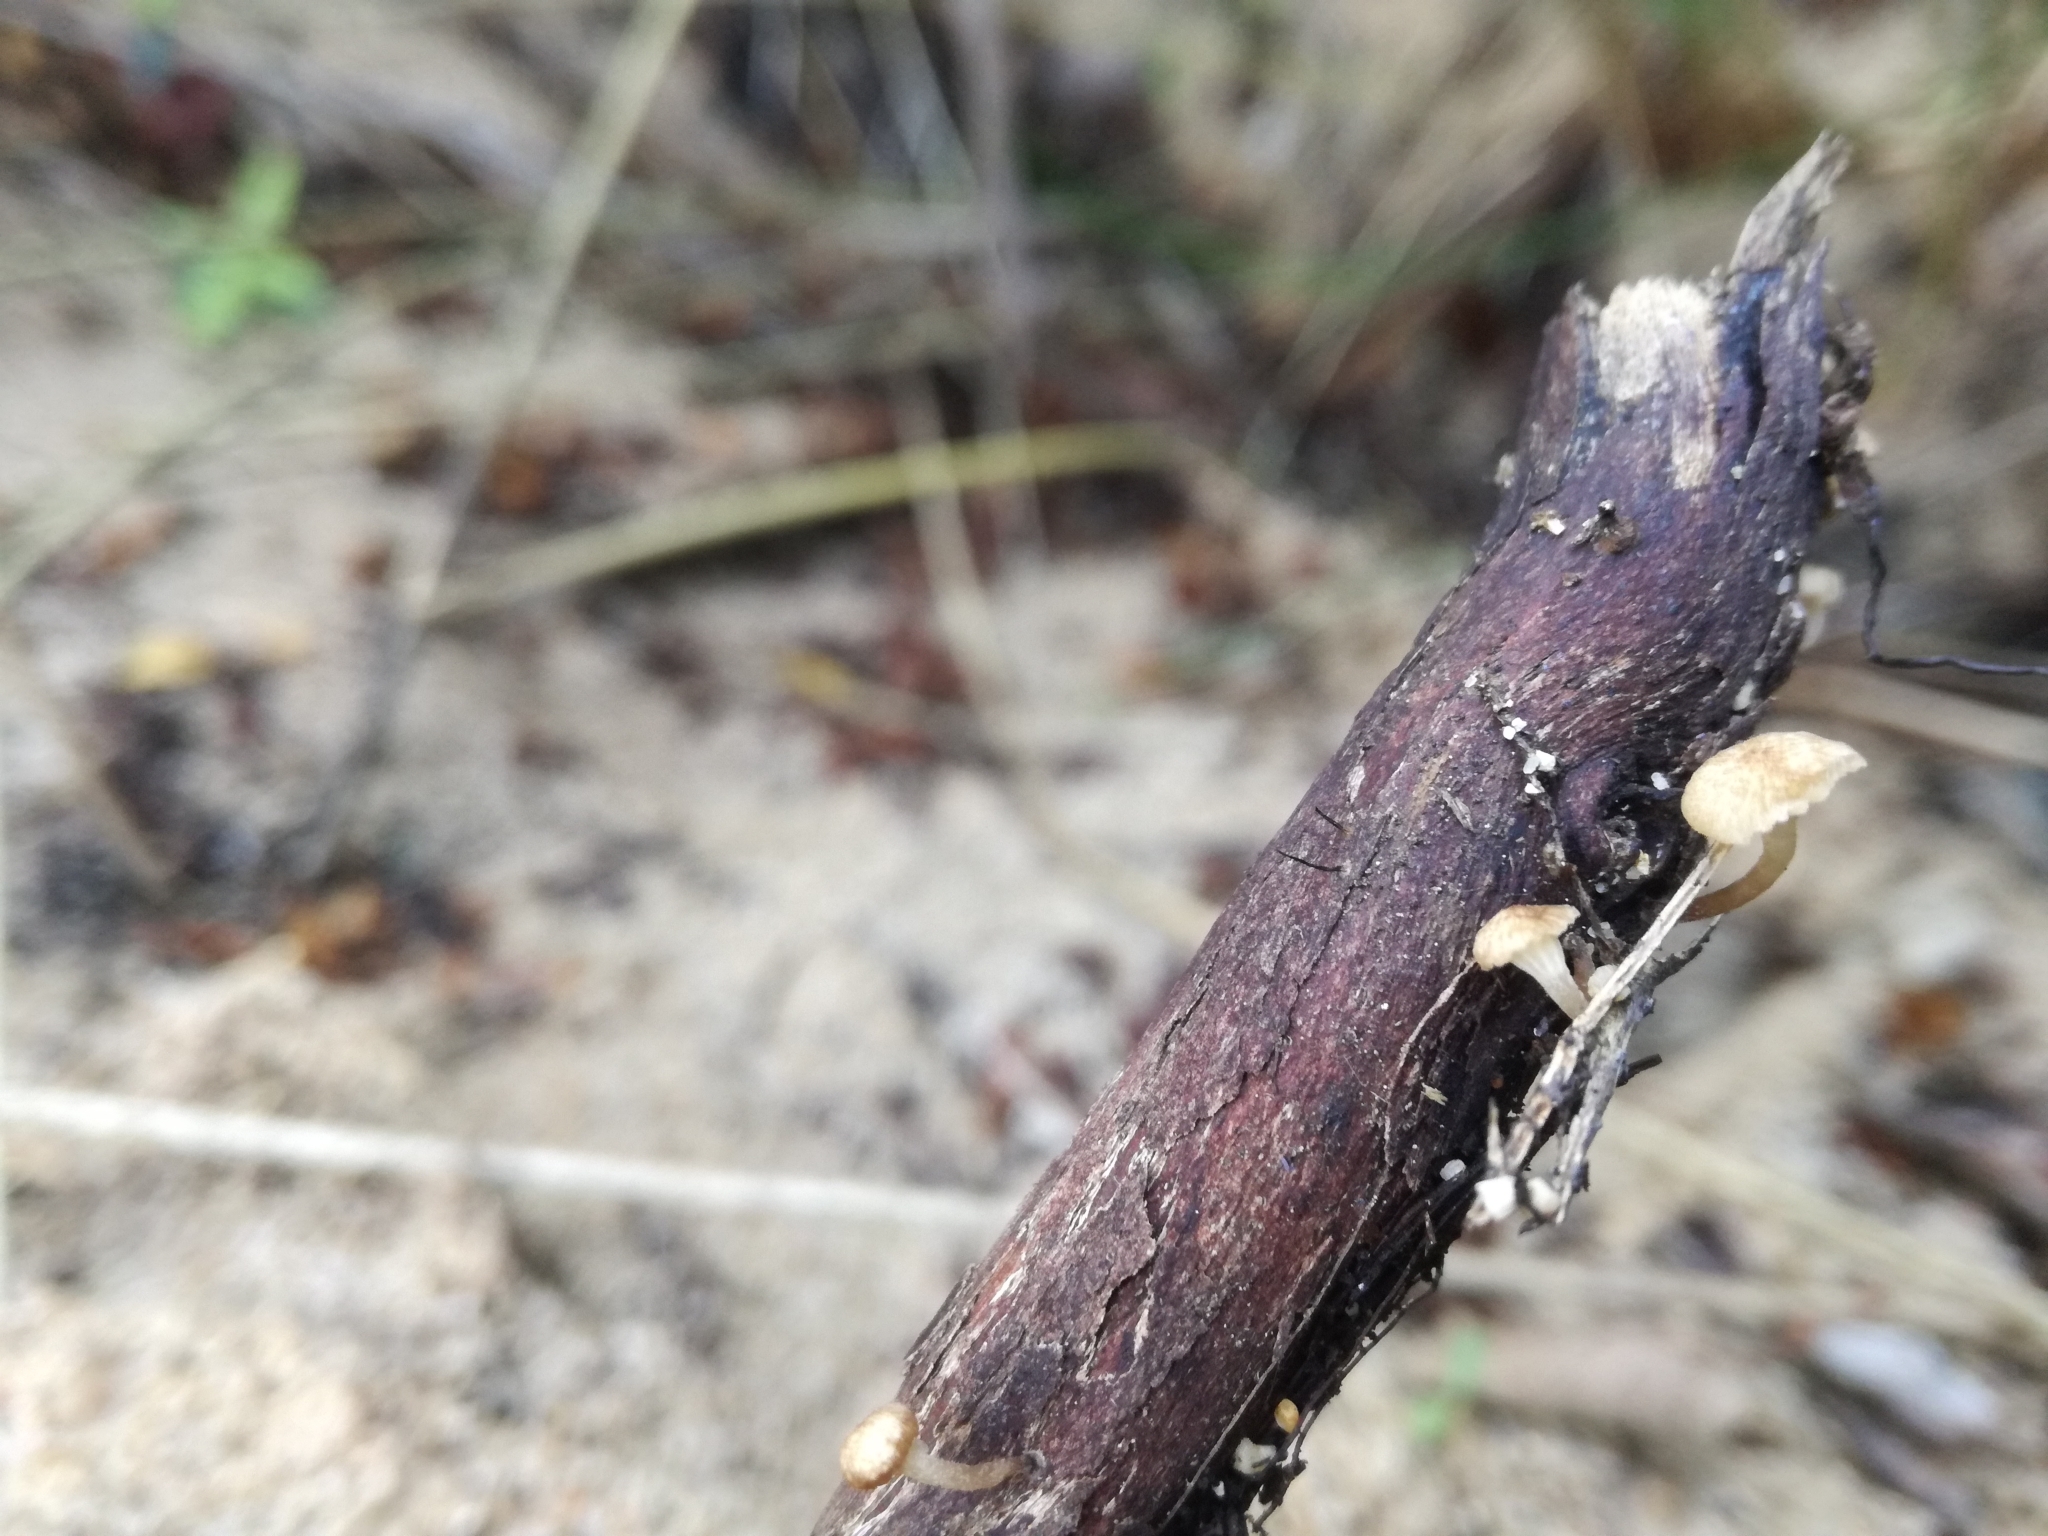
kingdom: Fungi
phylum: Basidiomycota
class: Agaricomycetes
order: Agaricales
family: Omphalotaceae
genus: Marasmiellus
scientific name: Marasmiellus omphaloides
